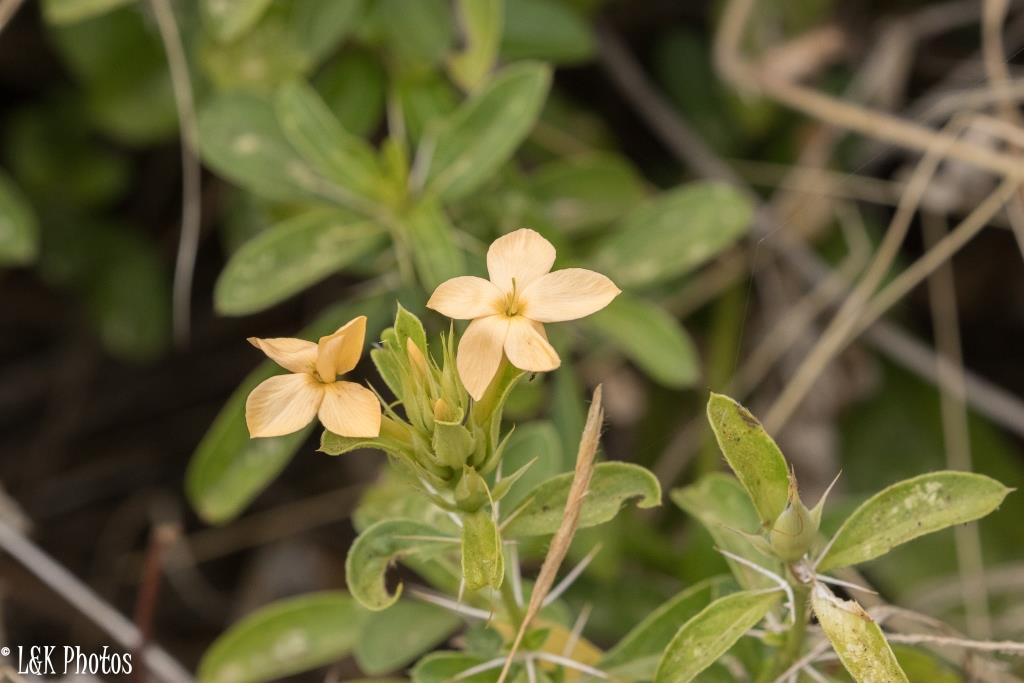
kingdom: Plantae
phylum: Tracheophyta
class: Magnoliopsida
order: Lamiales
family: Acanthaceae
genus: Barleria
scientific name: Barleria eranthemoides
